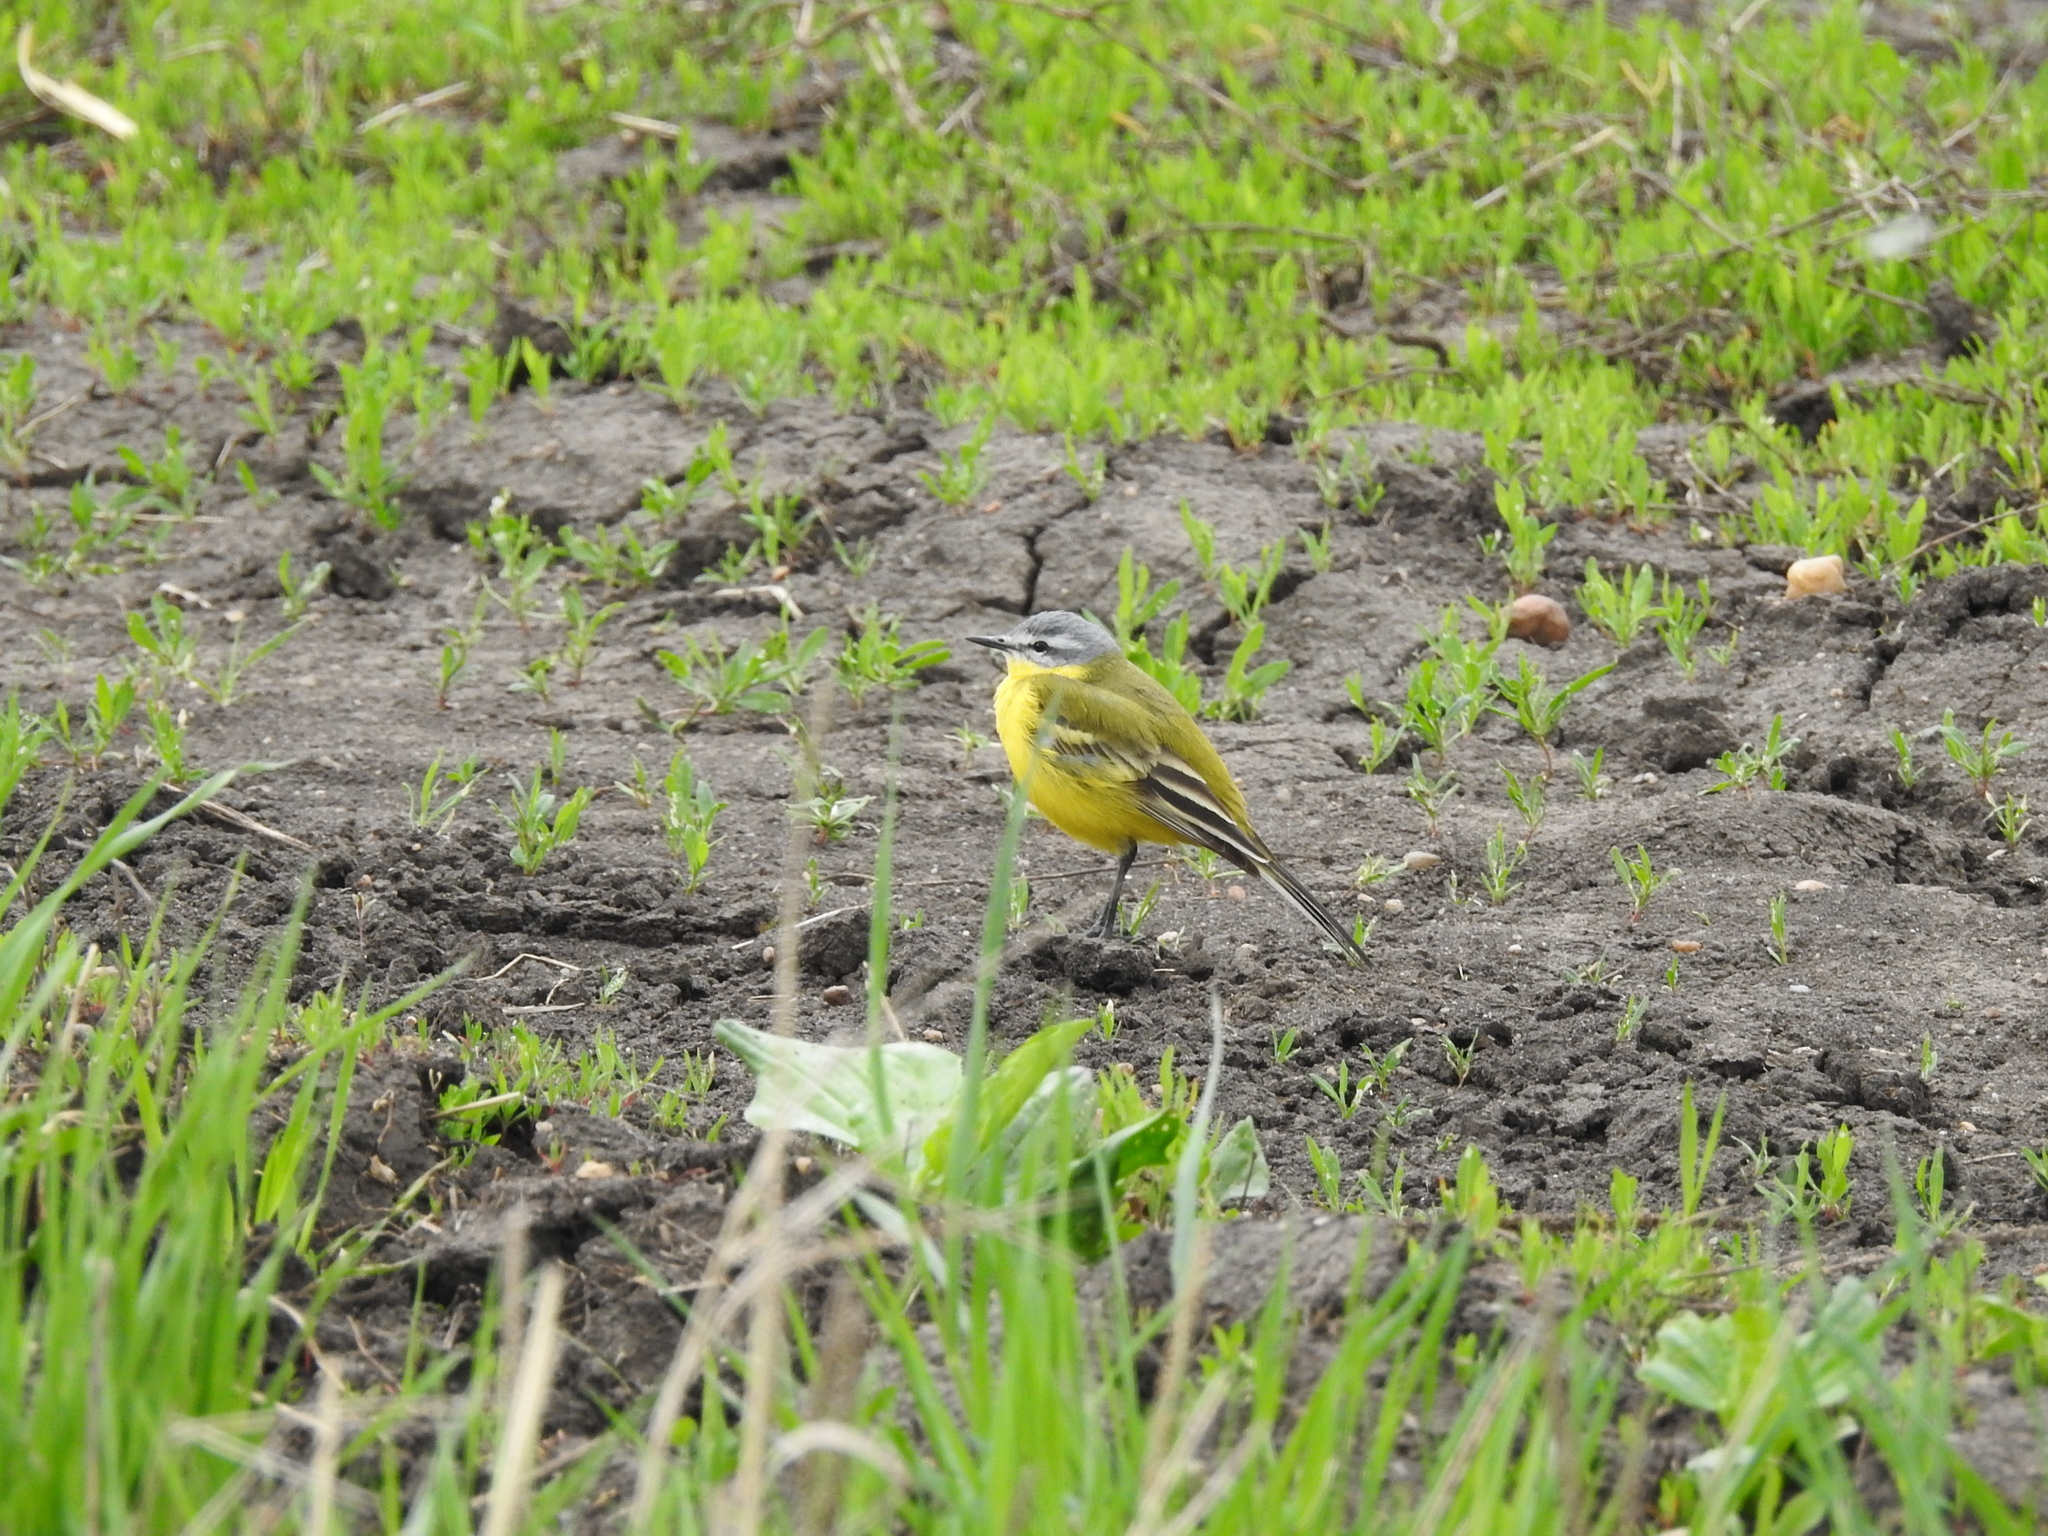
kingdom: Animalia
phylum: Chordata
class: Aves
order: Passeriformes
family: Motacillidae
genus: Motacilla
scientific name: Motacilla flava
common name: Western yellow wagtail
